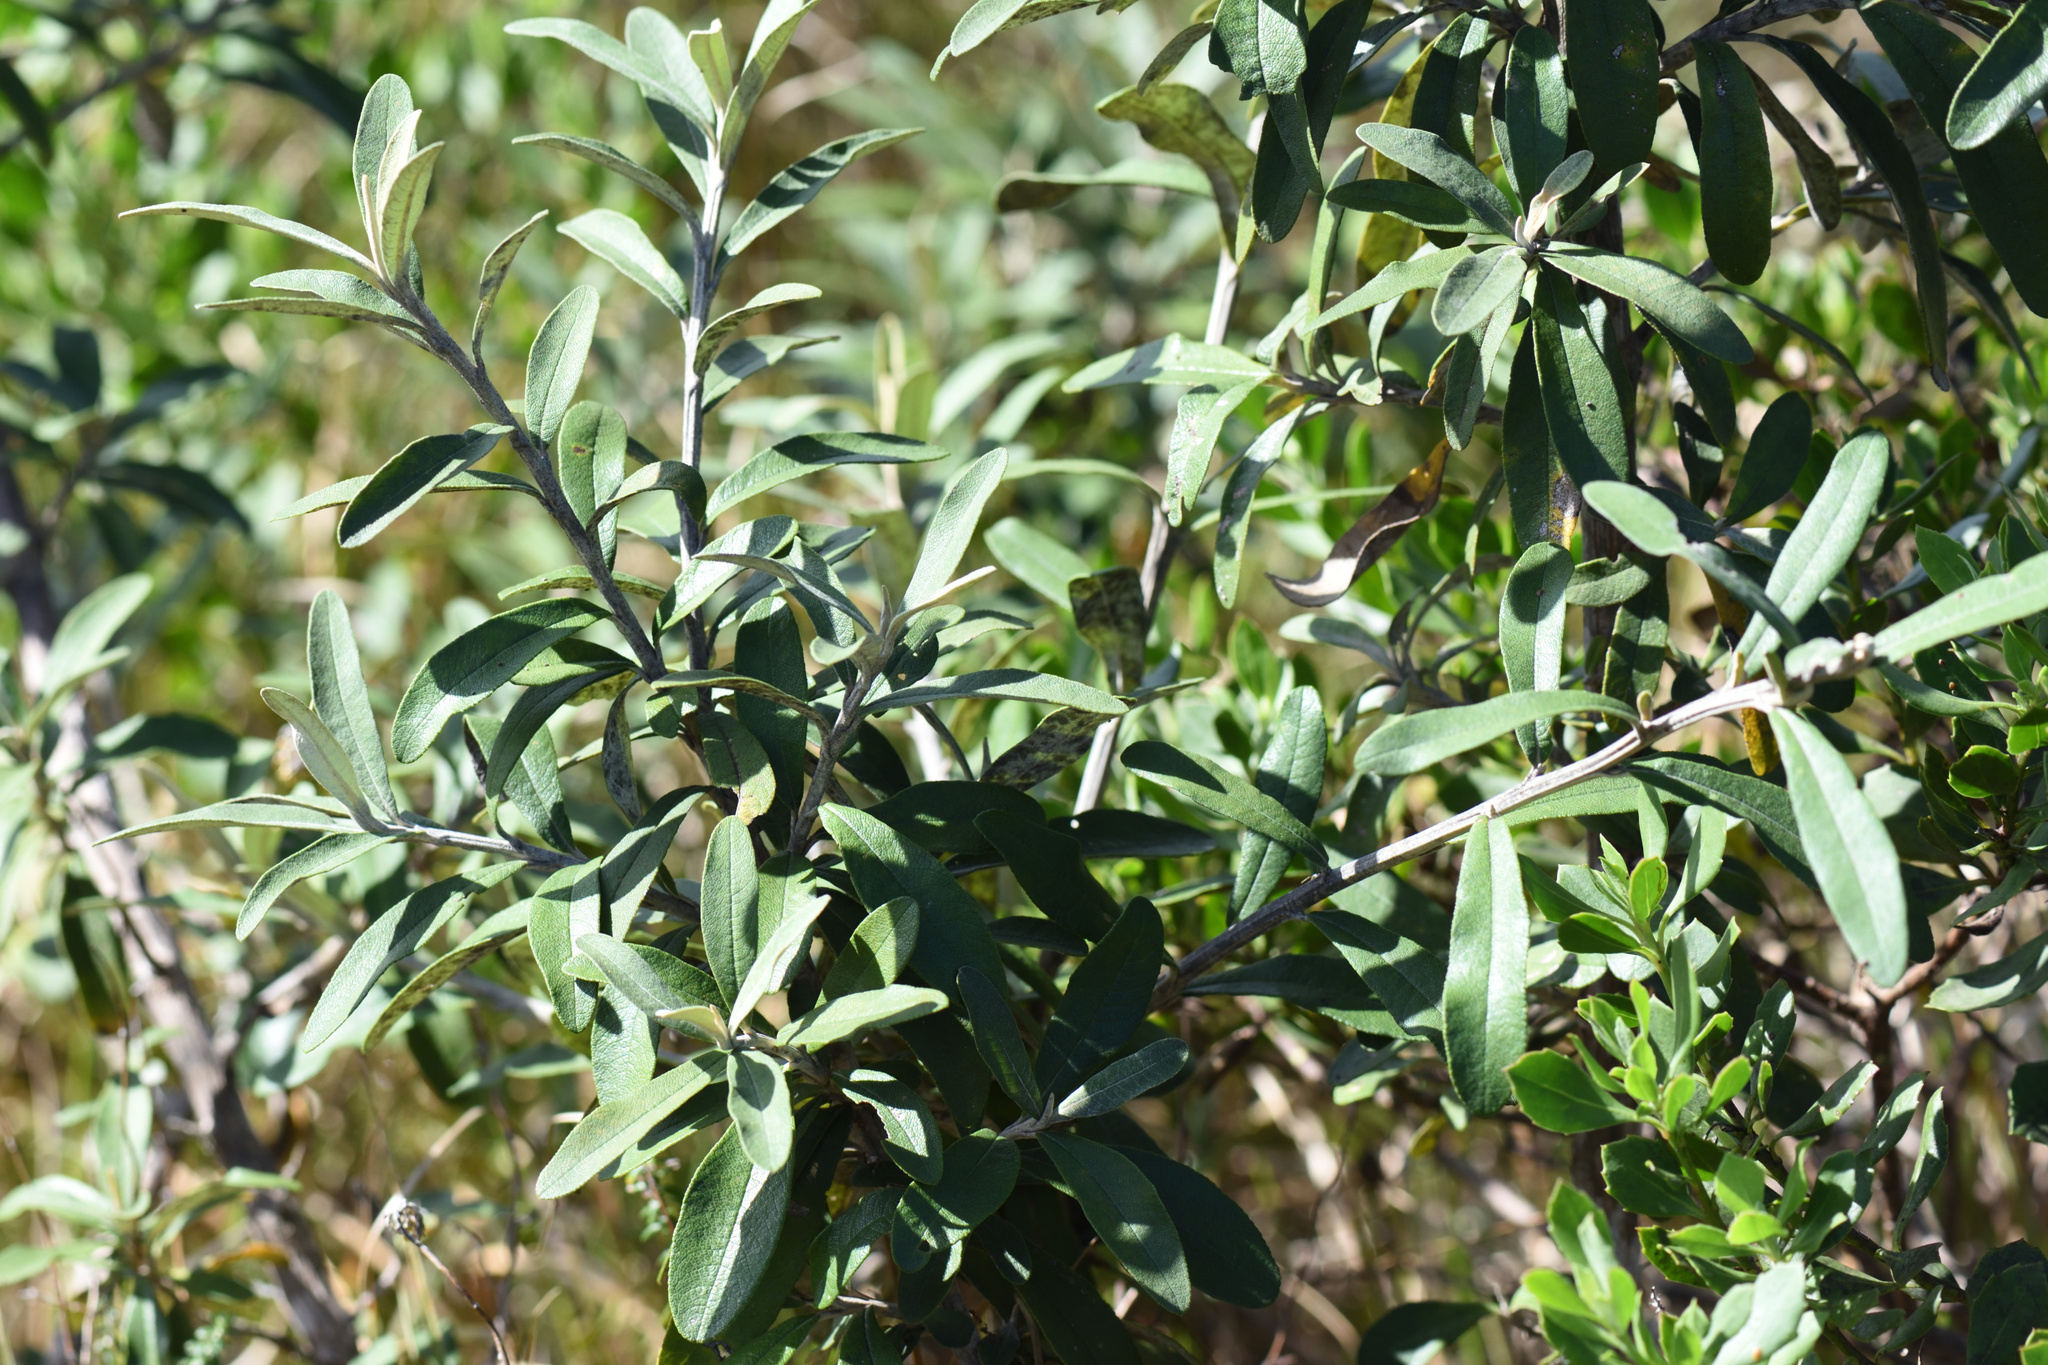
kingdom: Plantae
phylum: Tracheophyta
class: Magnoliopsida
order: Asterales
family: Asteraceae
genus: Tarchonanthus
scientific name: Tarchonanthus littoralis
